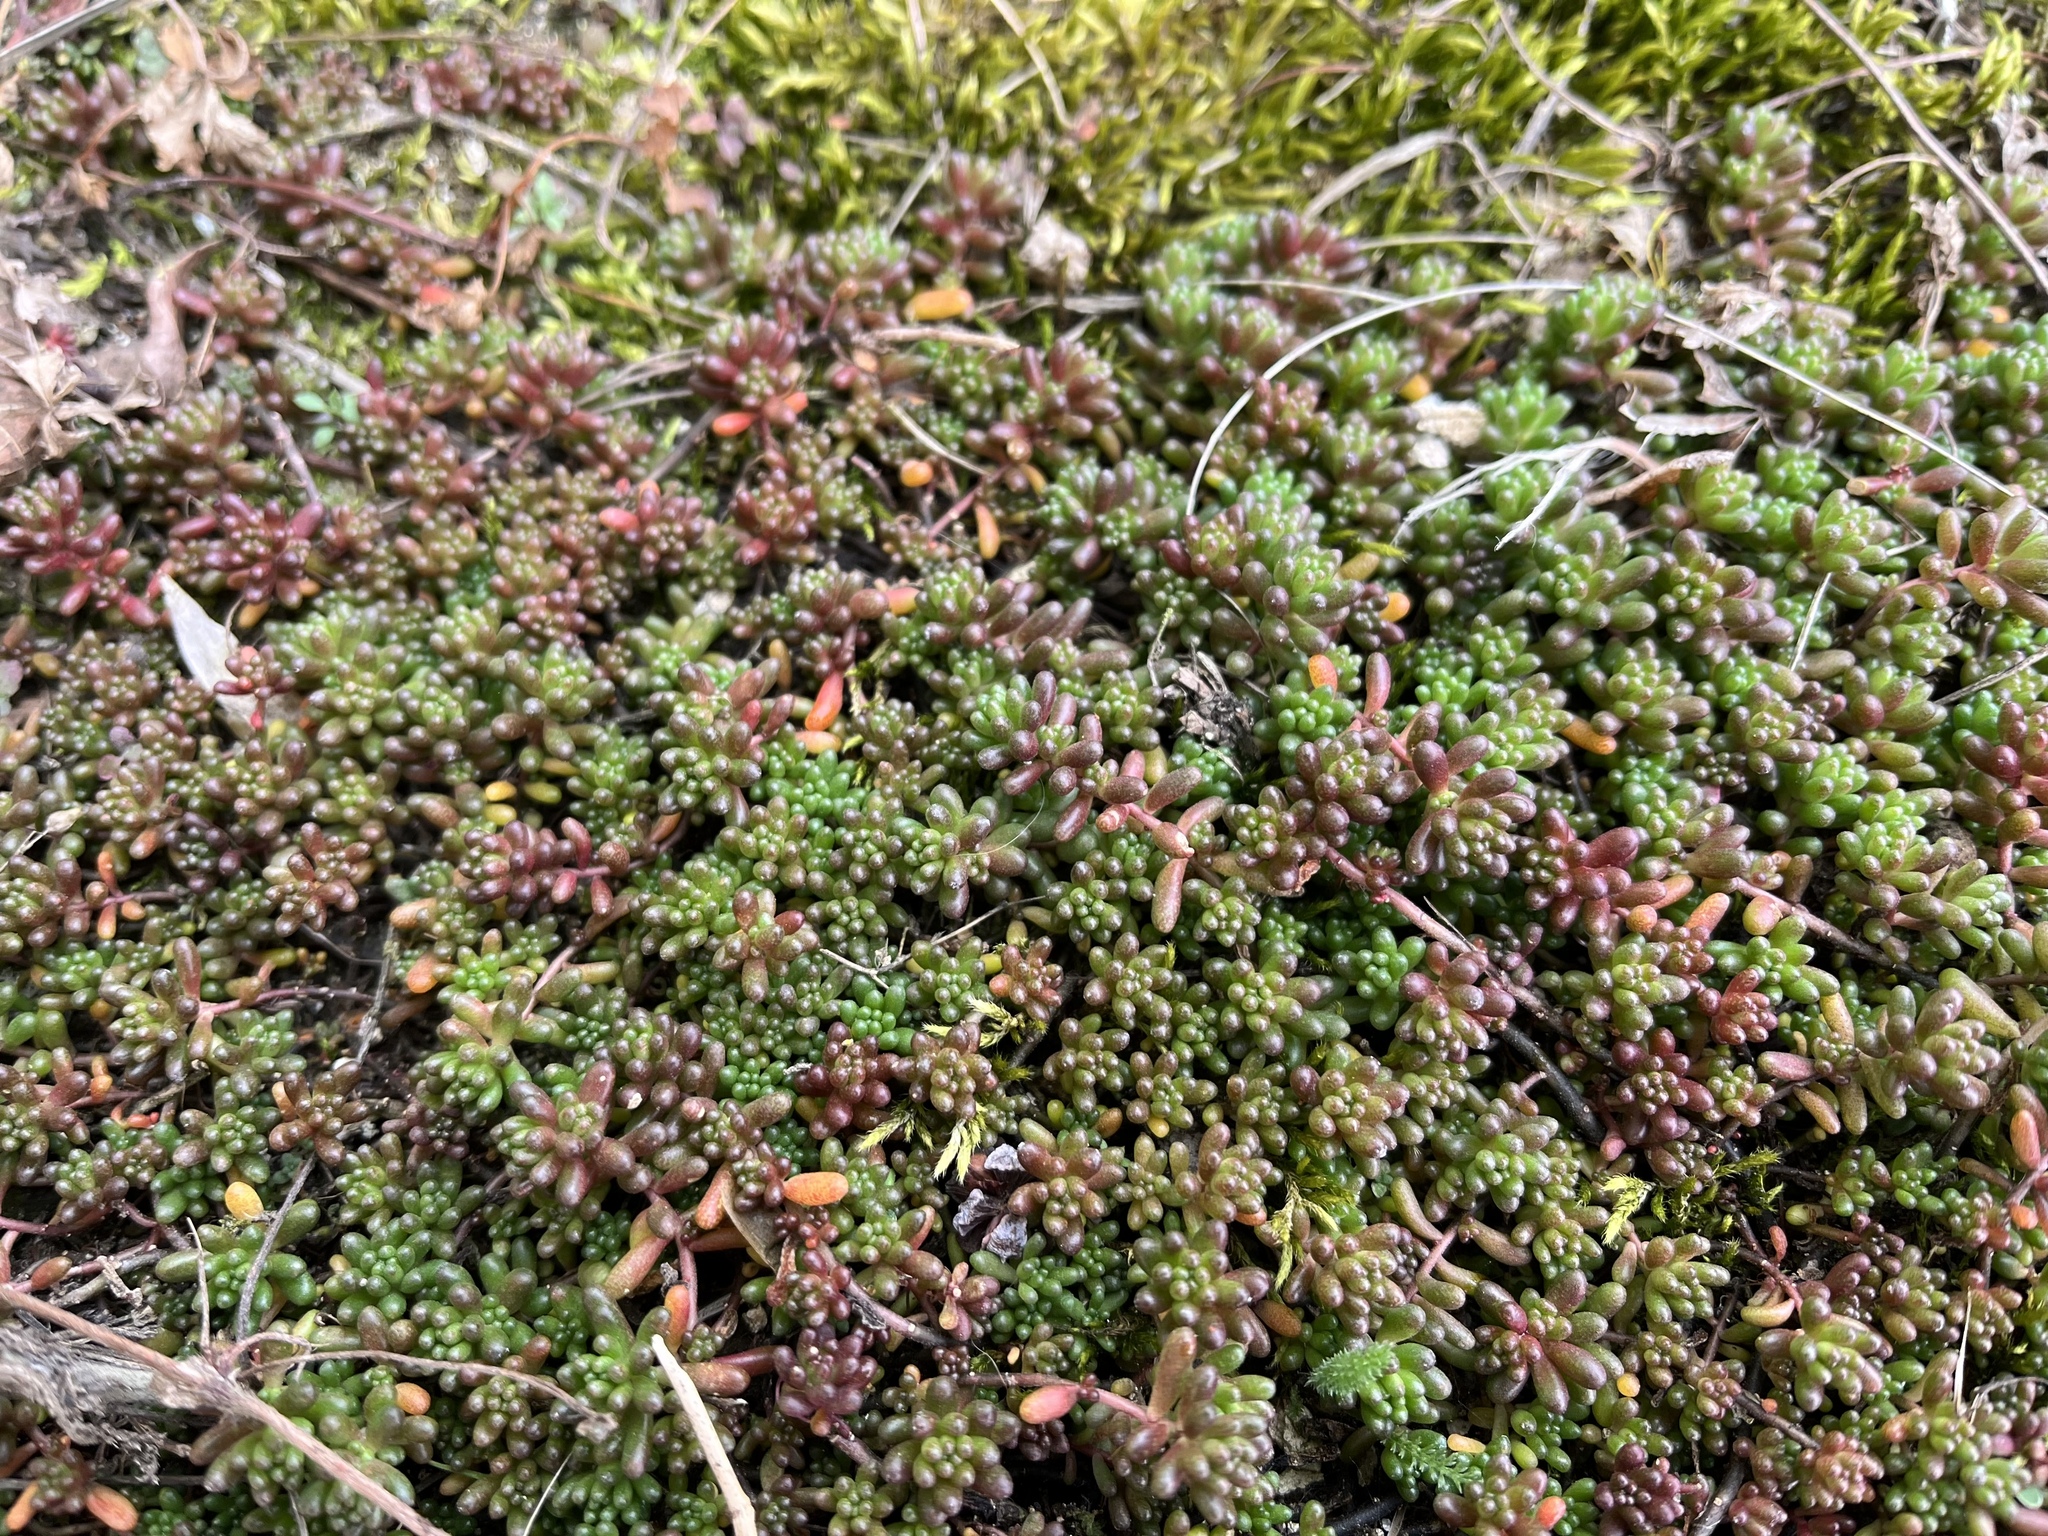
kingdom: Plantae
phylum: Tracheophyta
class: Magnoliopsida
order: Saxifragales
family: Crassulaceae
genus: Sedum
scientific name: Sedum album
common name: White stonecrop
